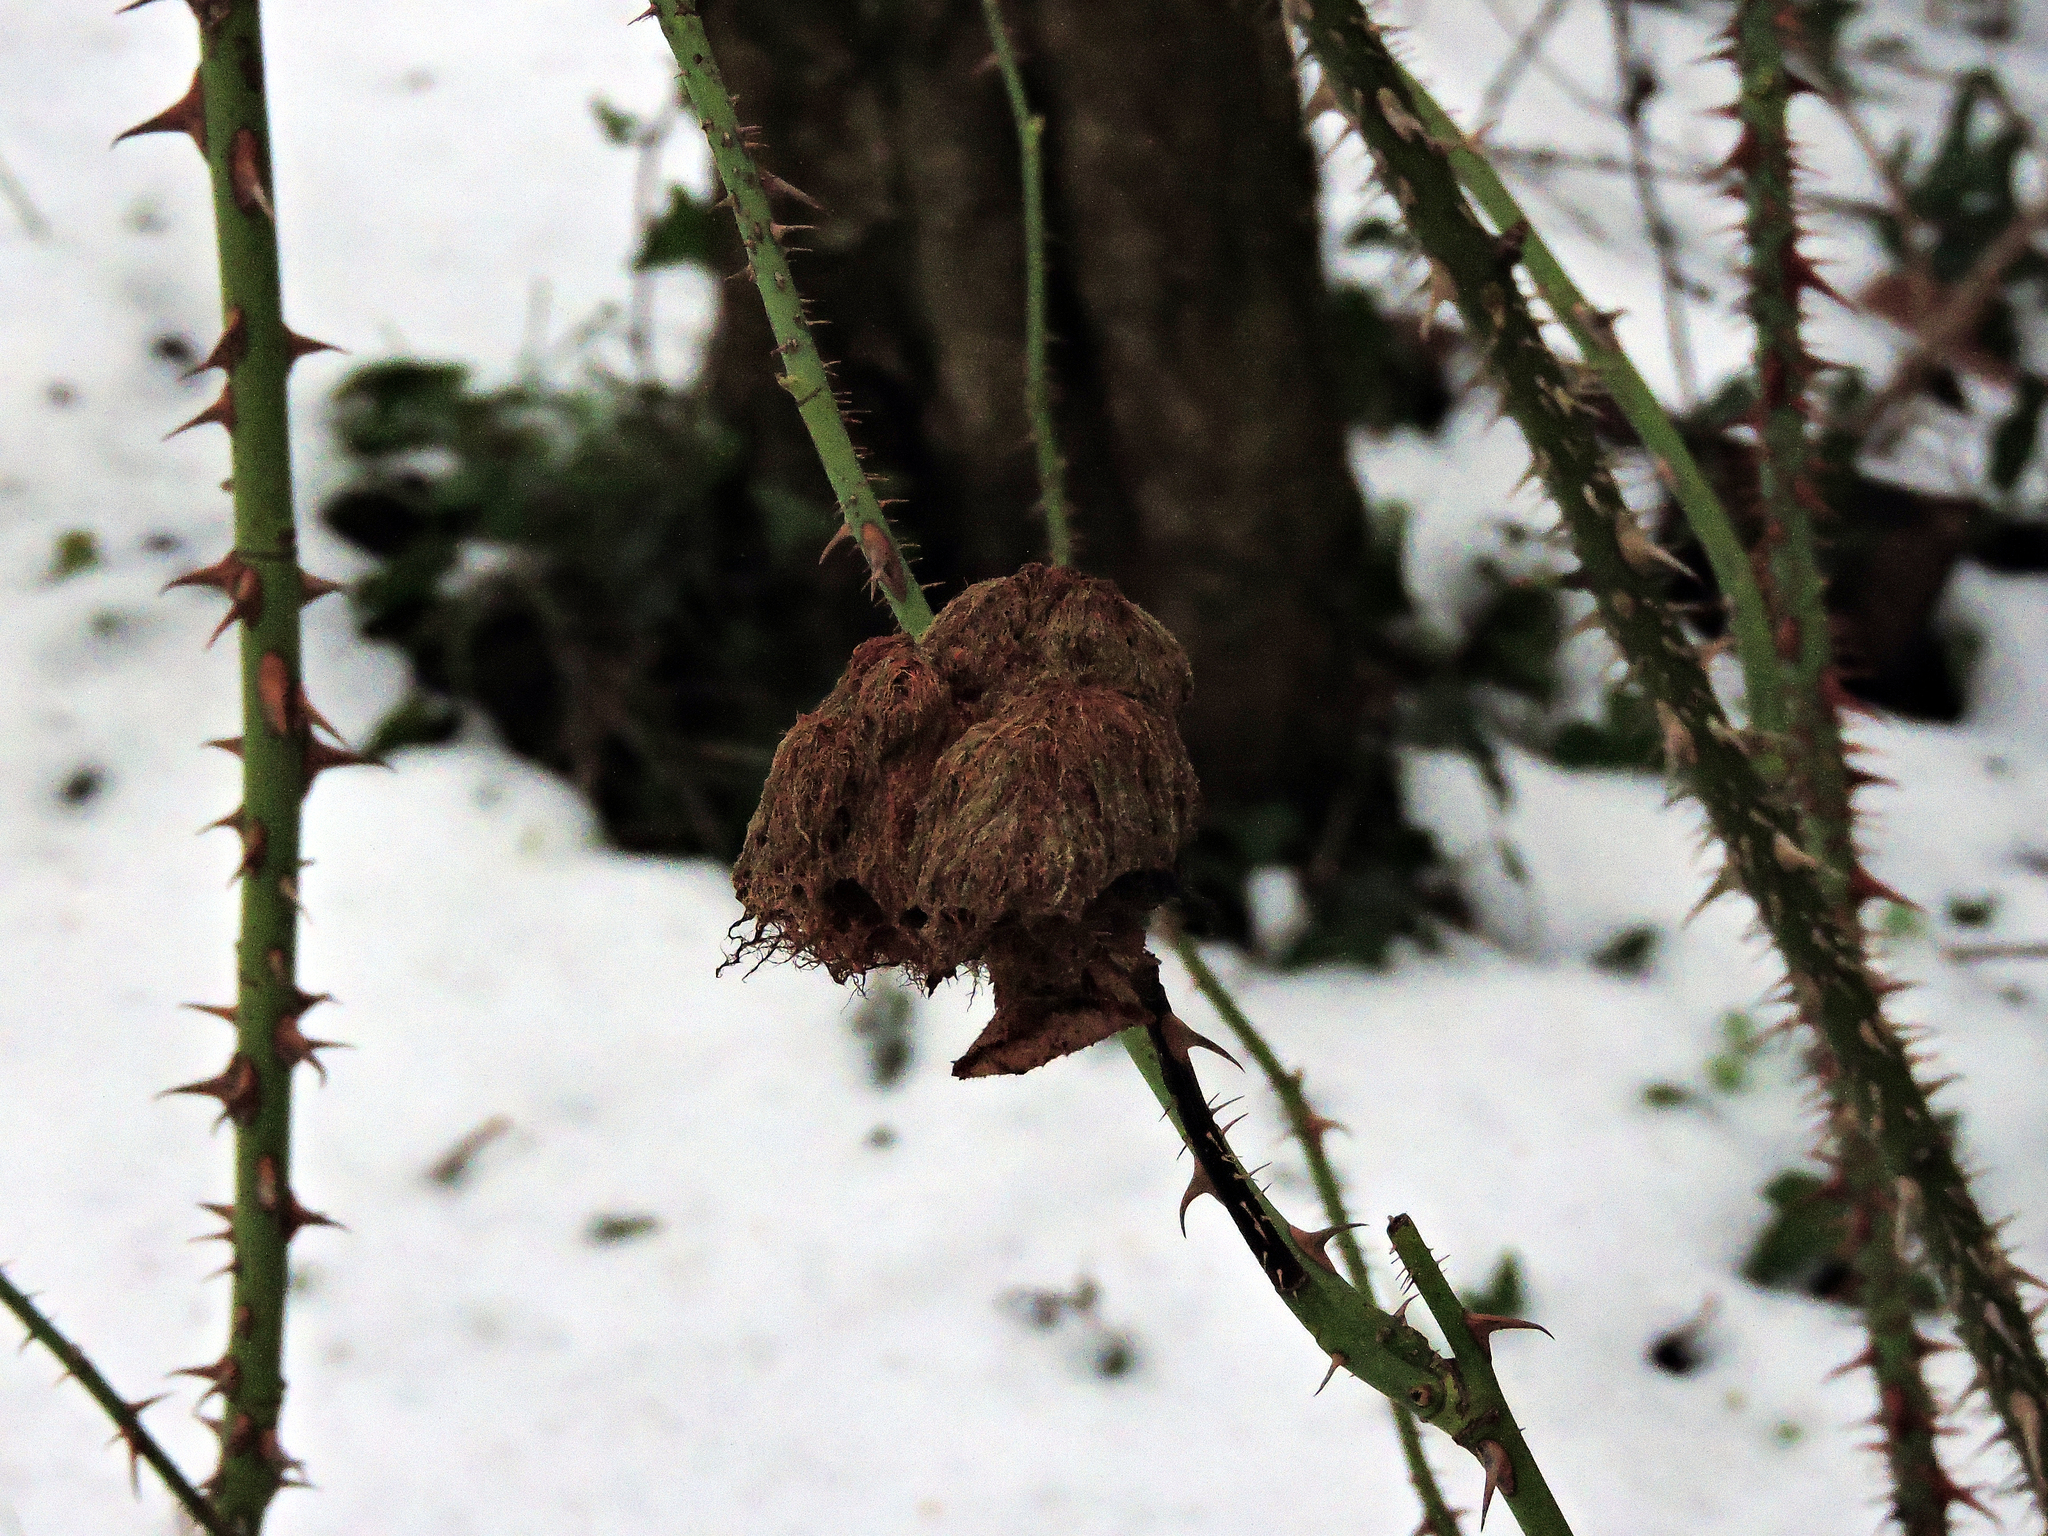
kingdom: Animalia
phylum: Arthropoda
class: Insecta
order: Hymenoptera
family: Cynipidae
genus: Diplolepis
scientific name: Diplolepis rosae
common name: Bedeguar gall
